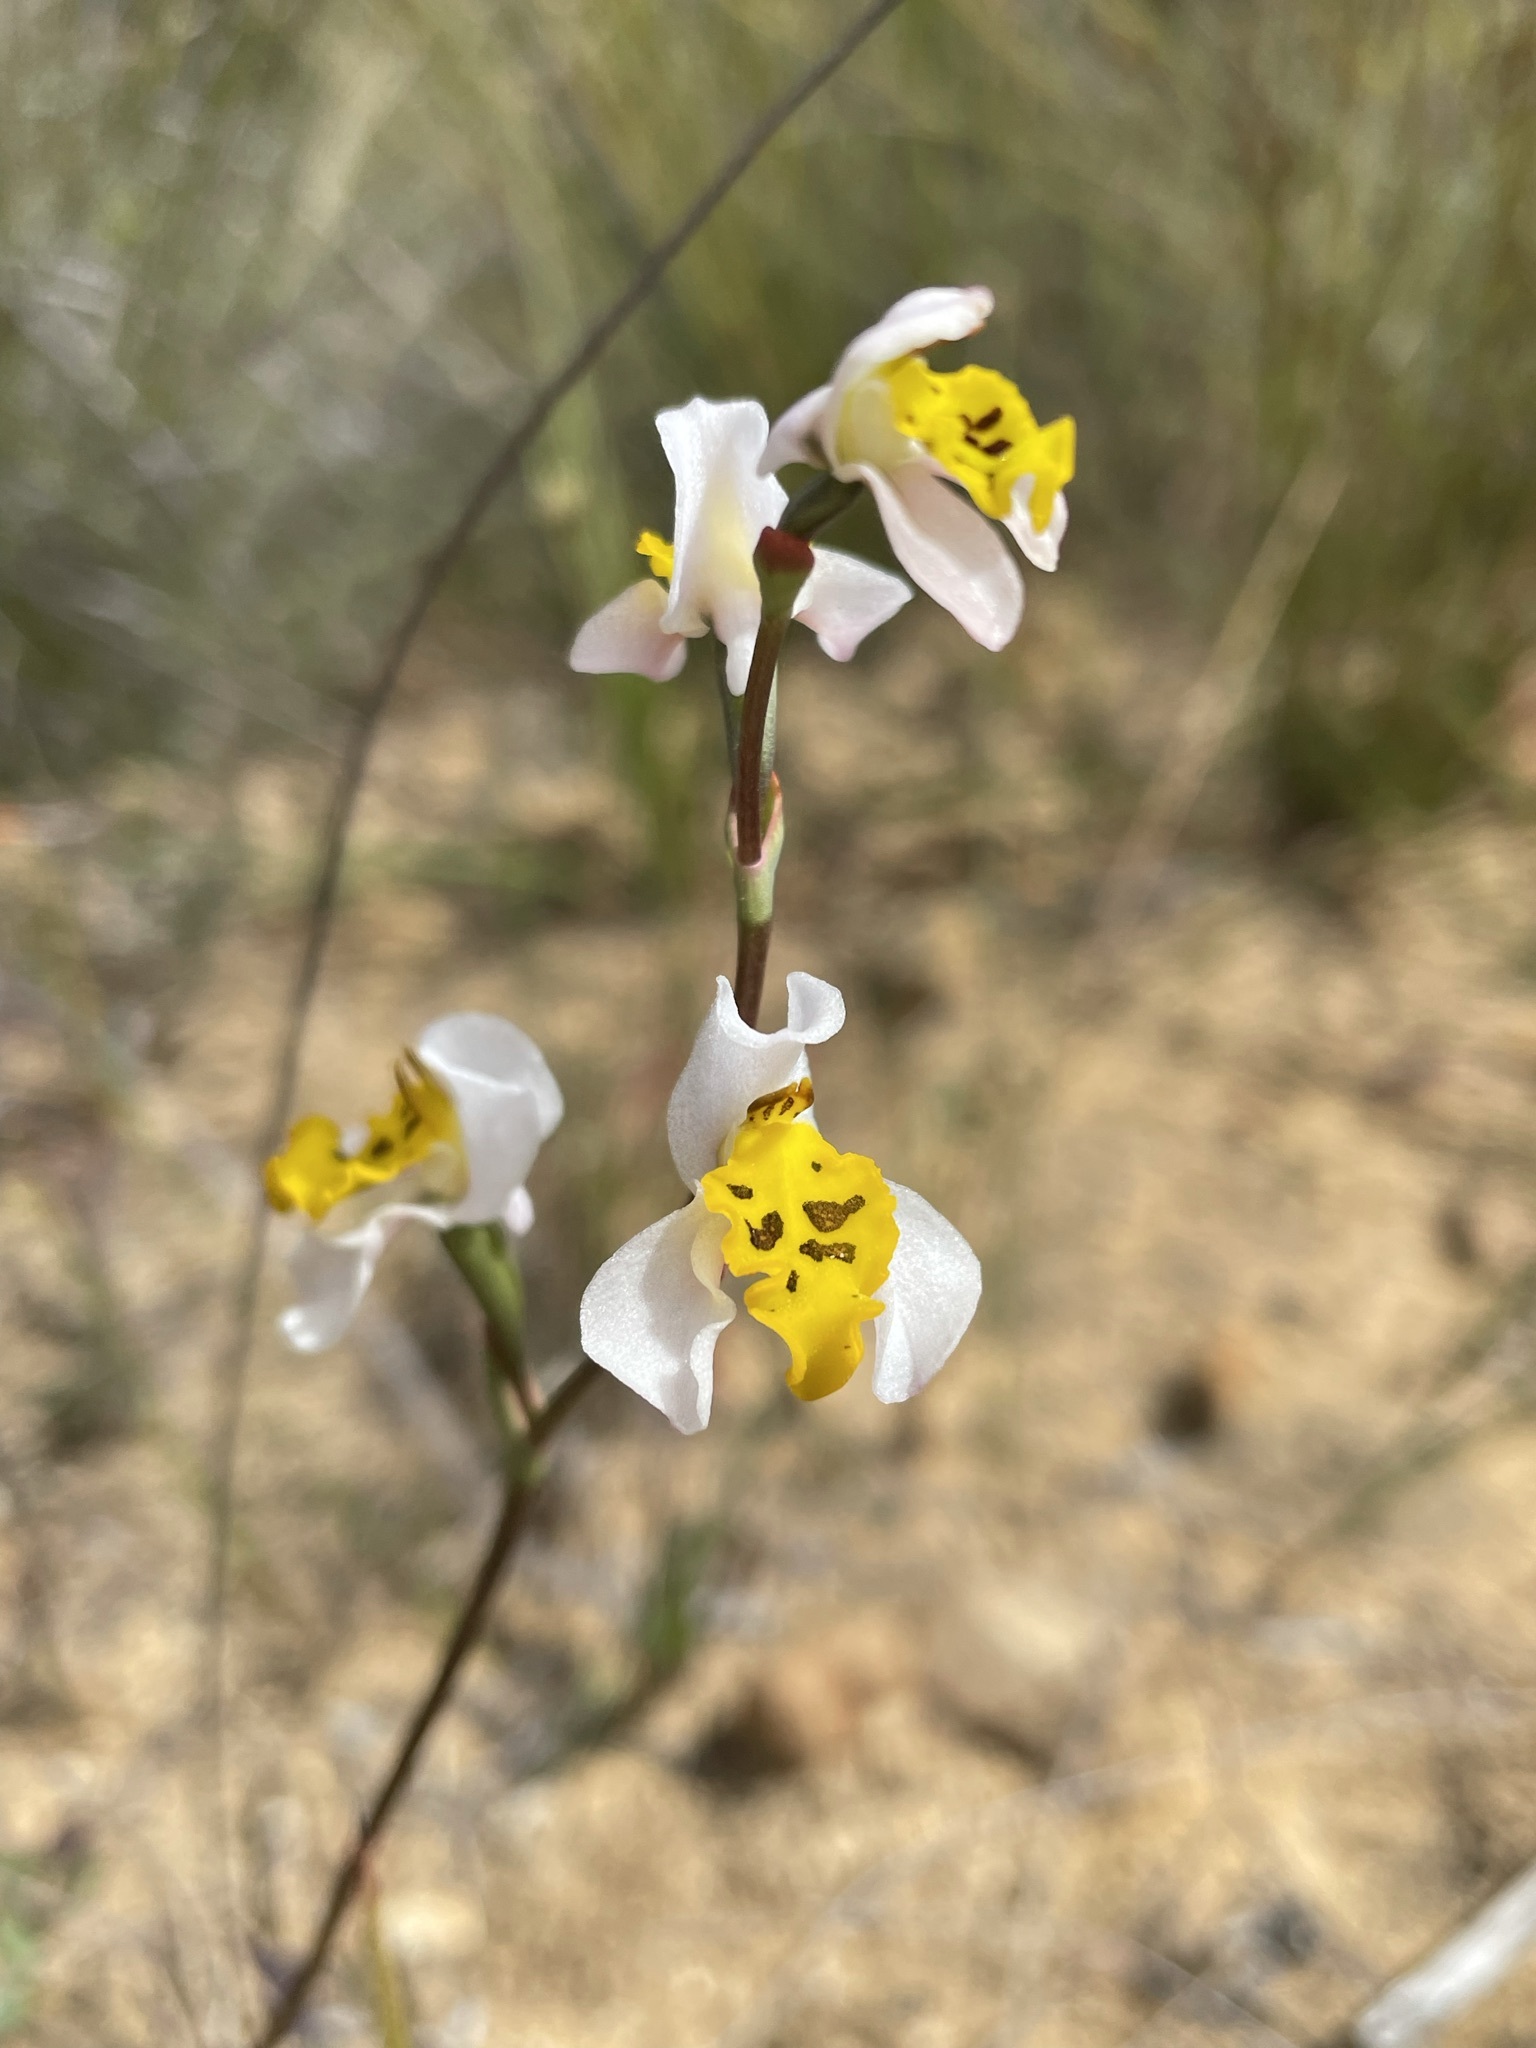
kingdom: Plantae
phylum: Tracheophyta
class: Liliopsida
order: Asparagales
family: Orchidaceae
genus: Disa
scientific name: Disa flexuosa
